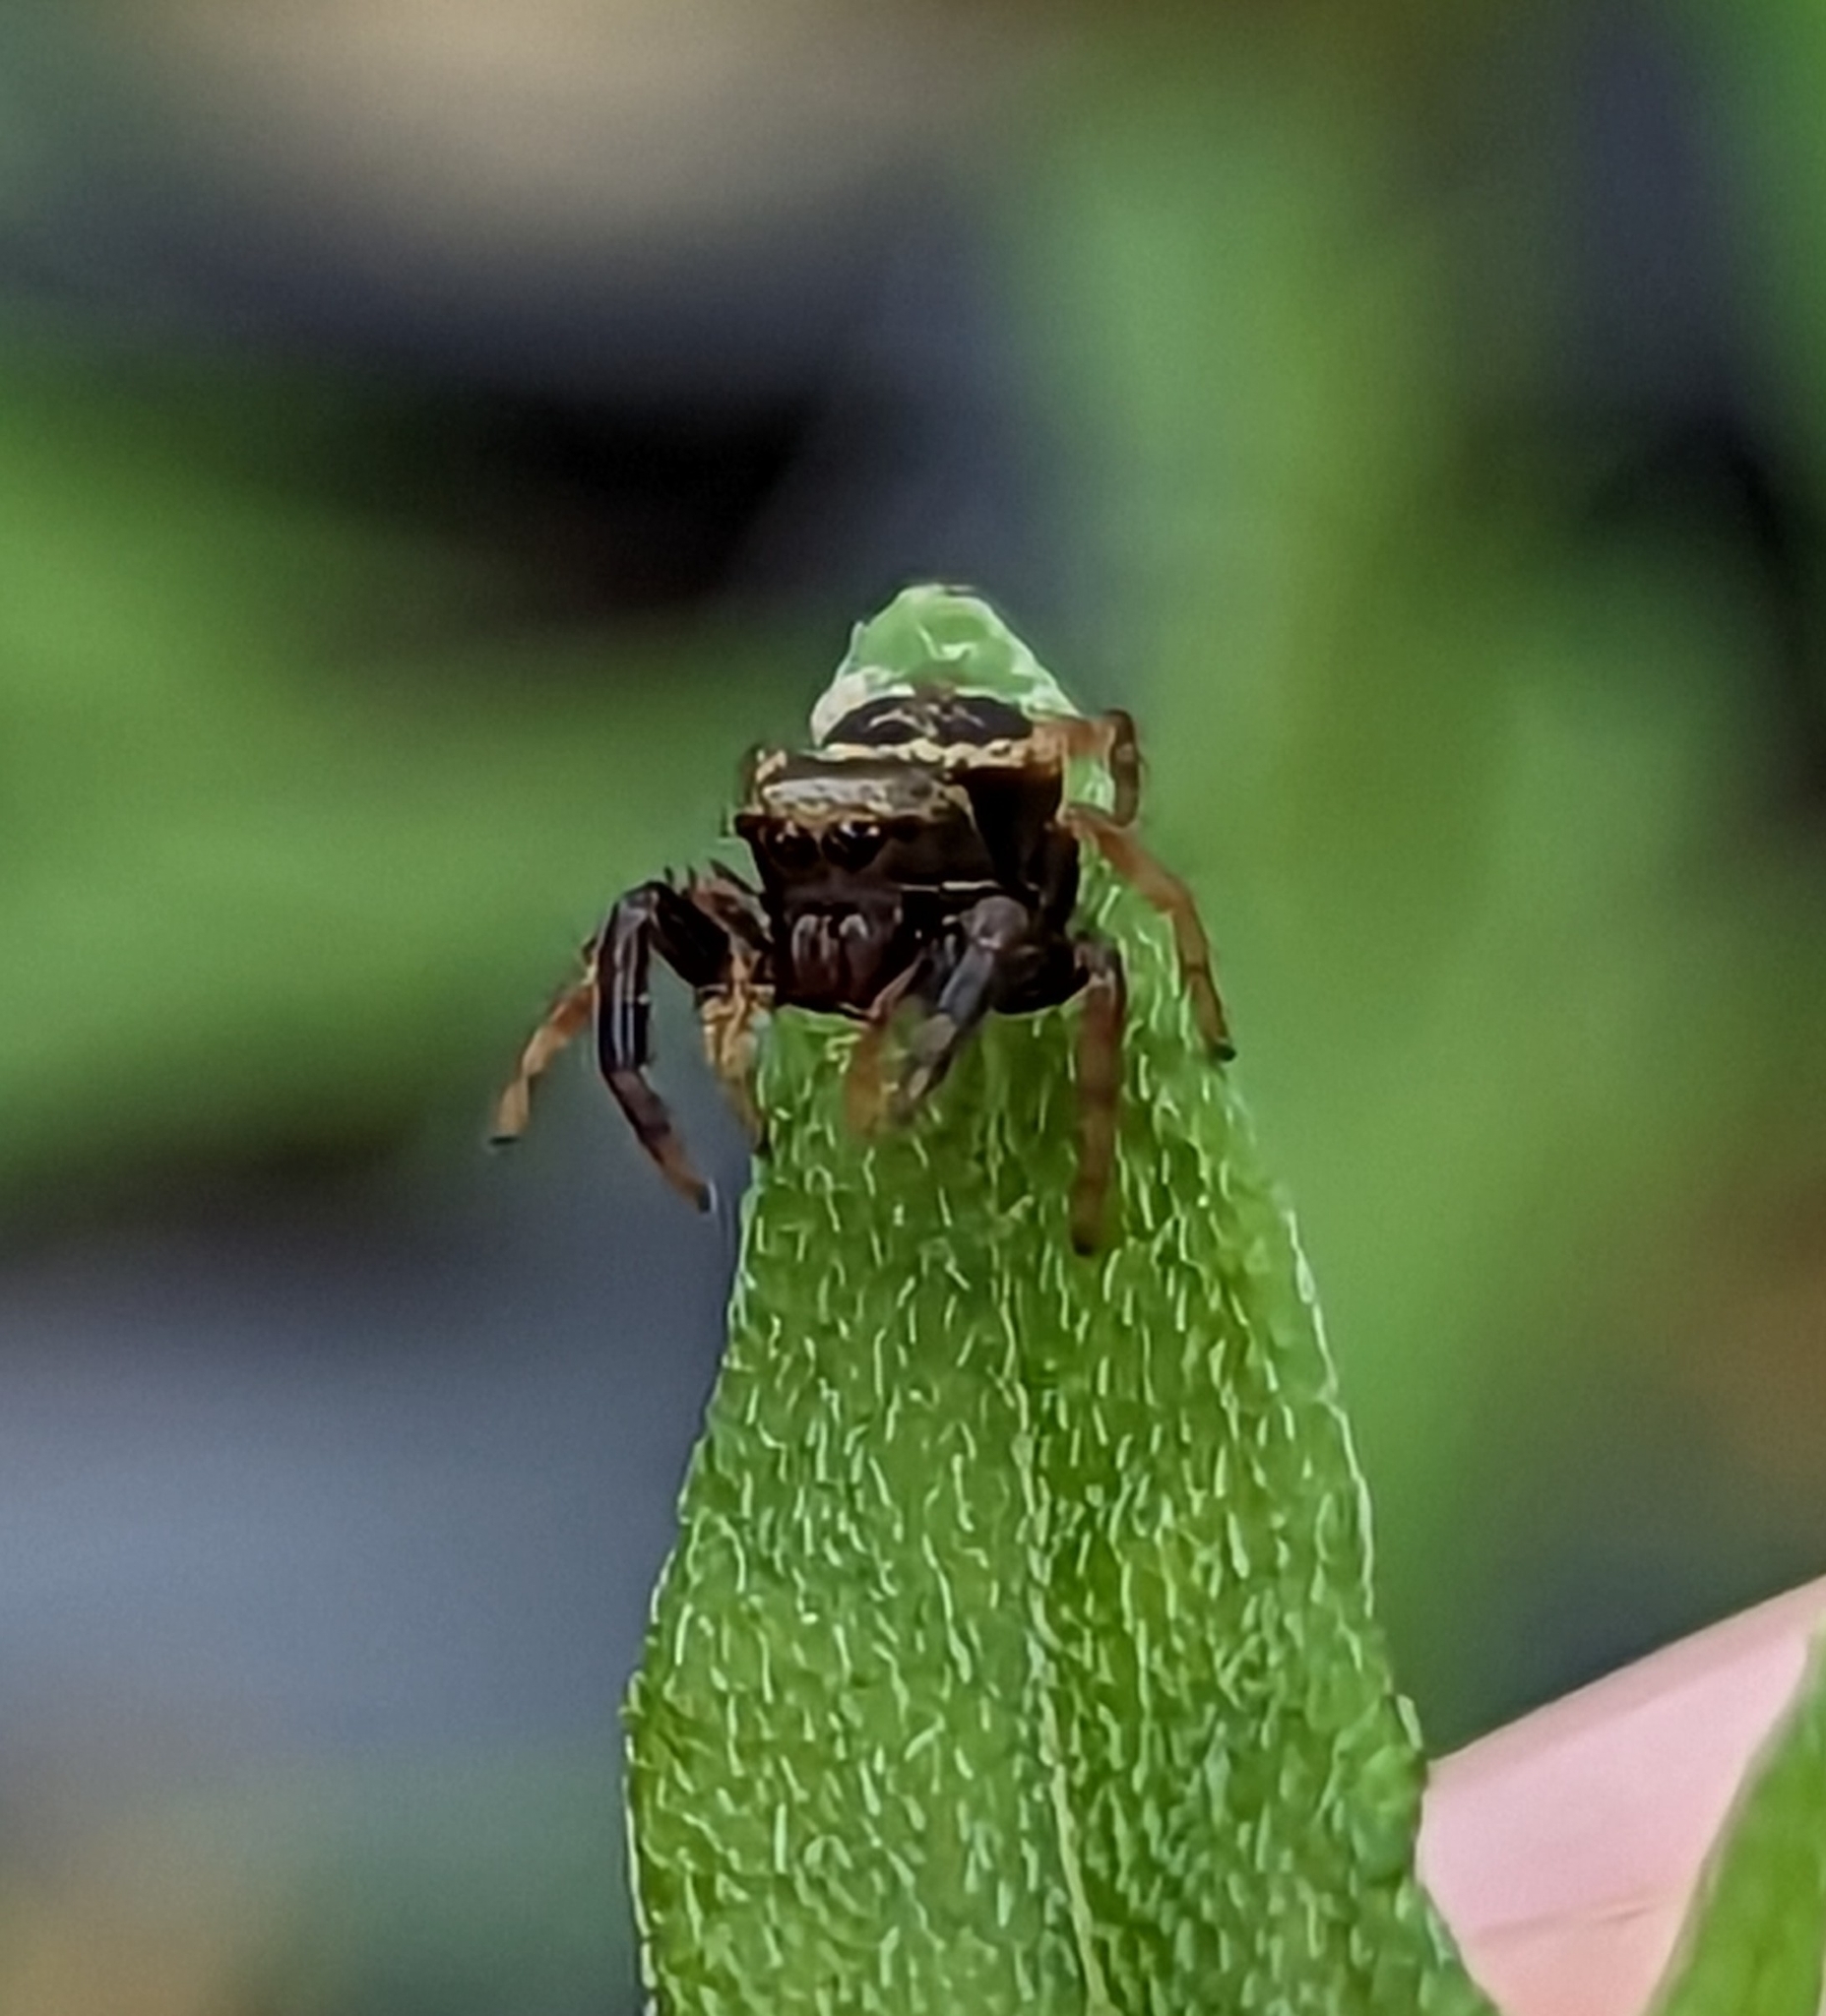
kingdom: Animalia
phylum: Arthropoda
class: Arachnida
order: Araneae
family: Salticidae
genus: Paraphidippus
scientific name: Paraphidippus aurantius
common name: Jumping spiders
